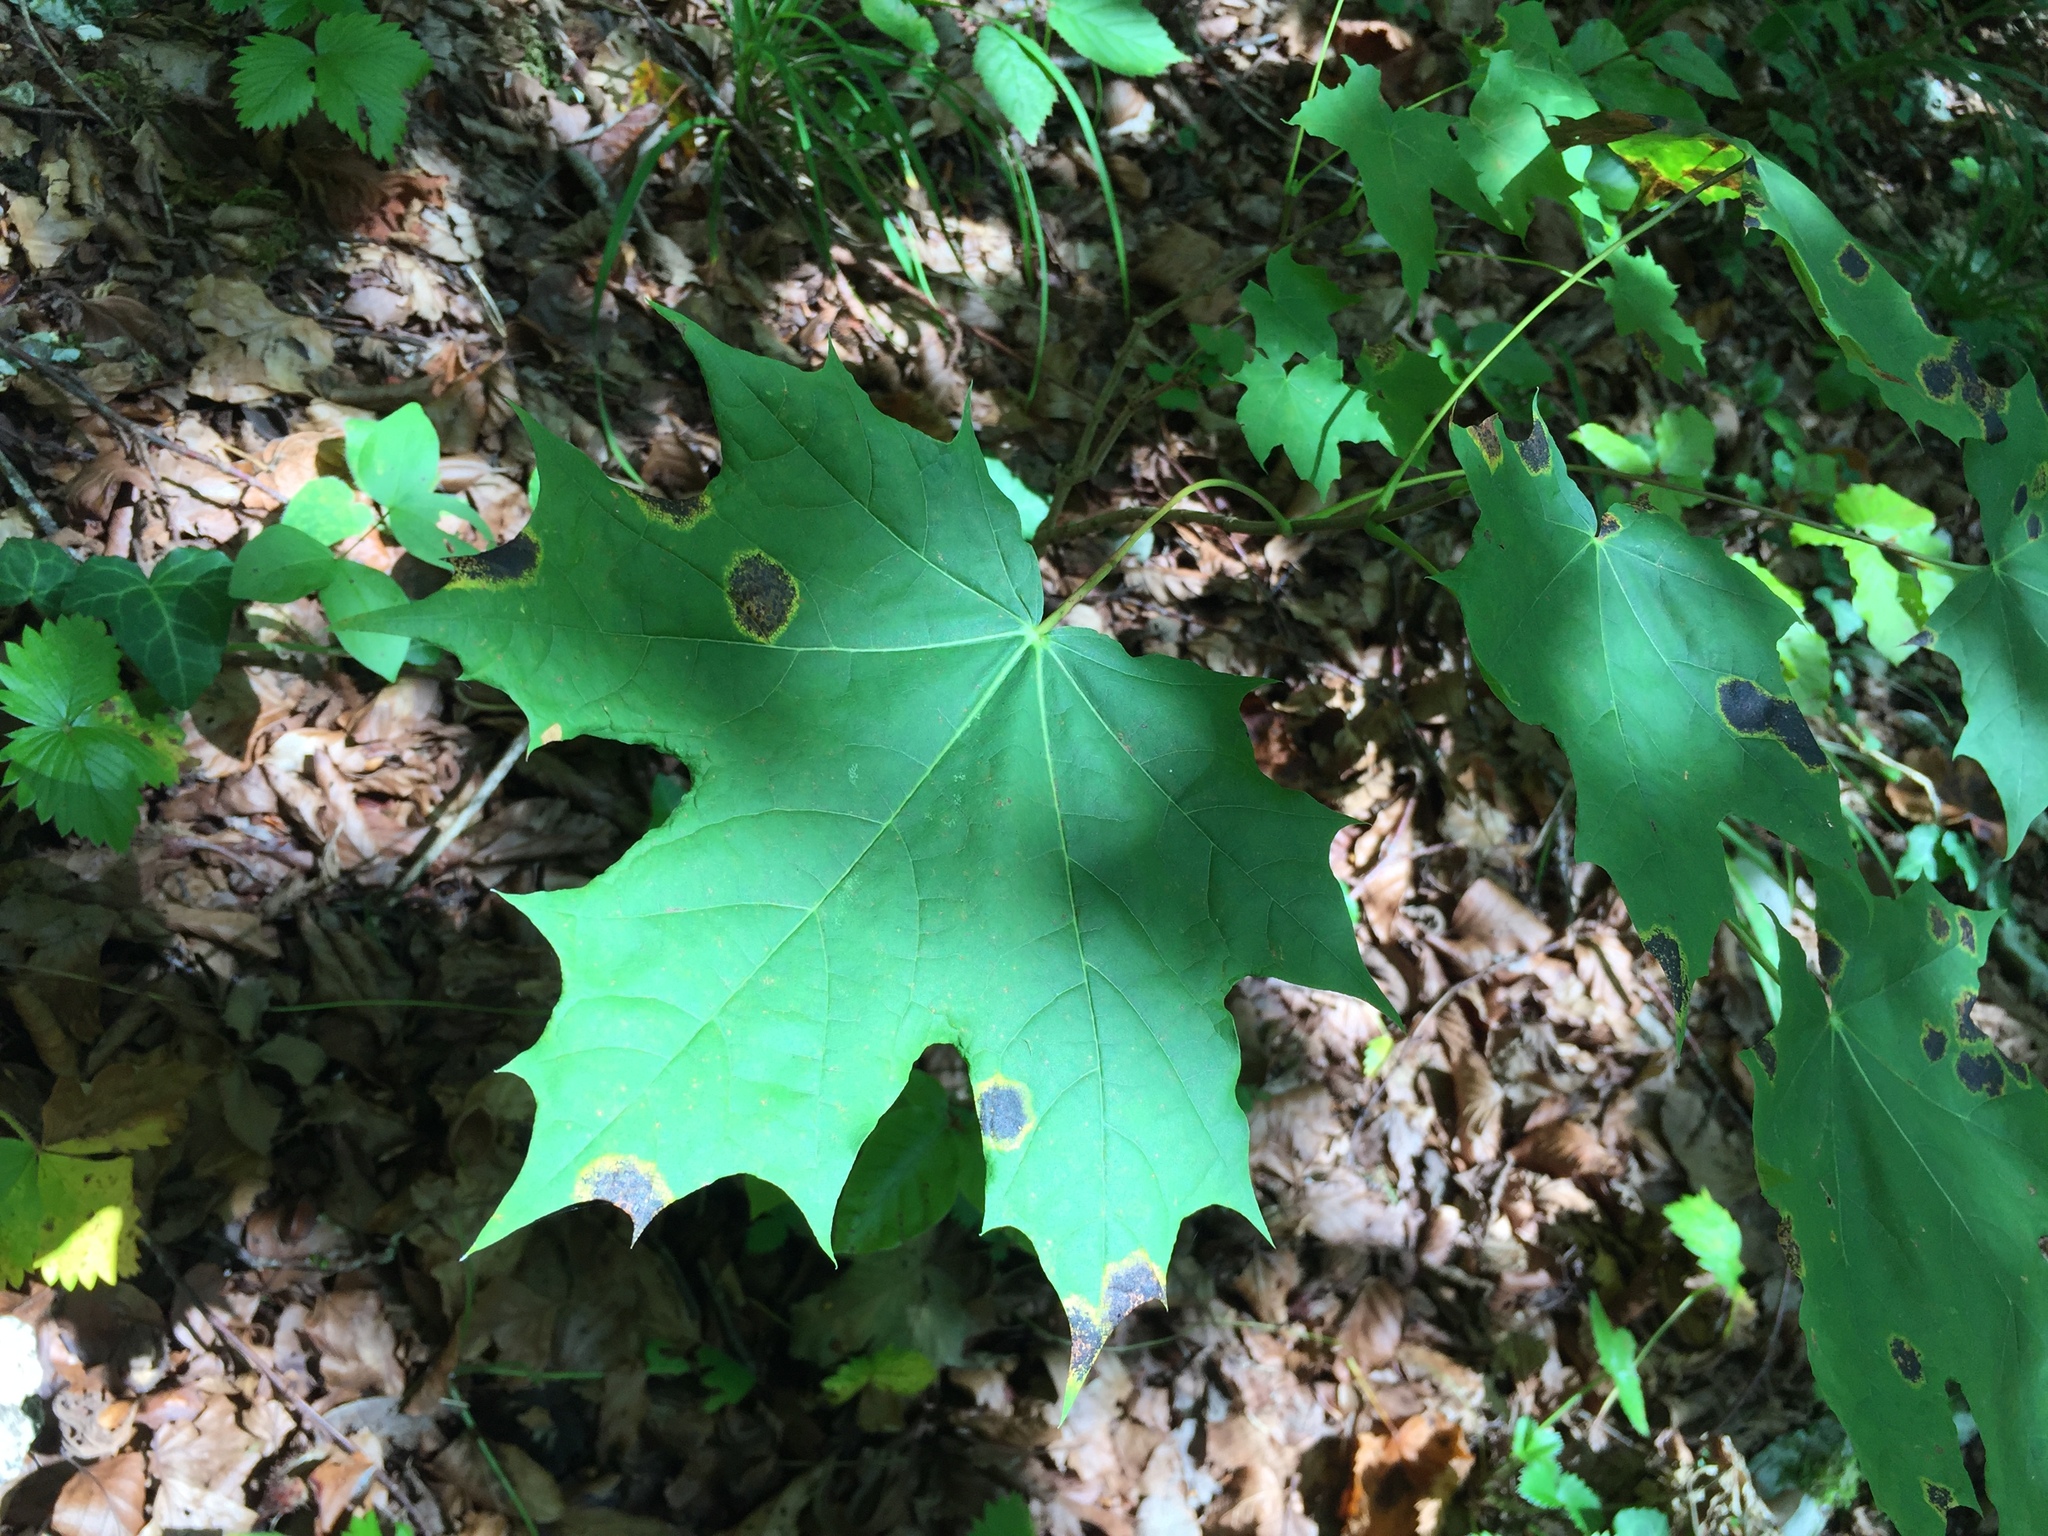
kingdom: Plantae
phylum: Tracheophyta
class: Magnoliopsida
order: Sapindales
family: Sapindaceae
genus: Acer
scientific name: Acer platanoides
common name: Norway maple
